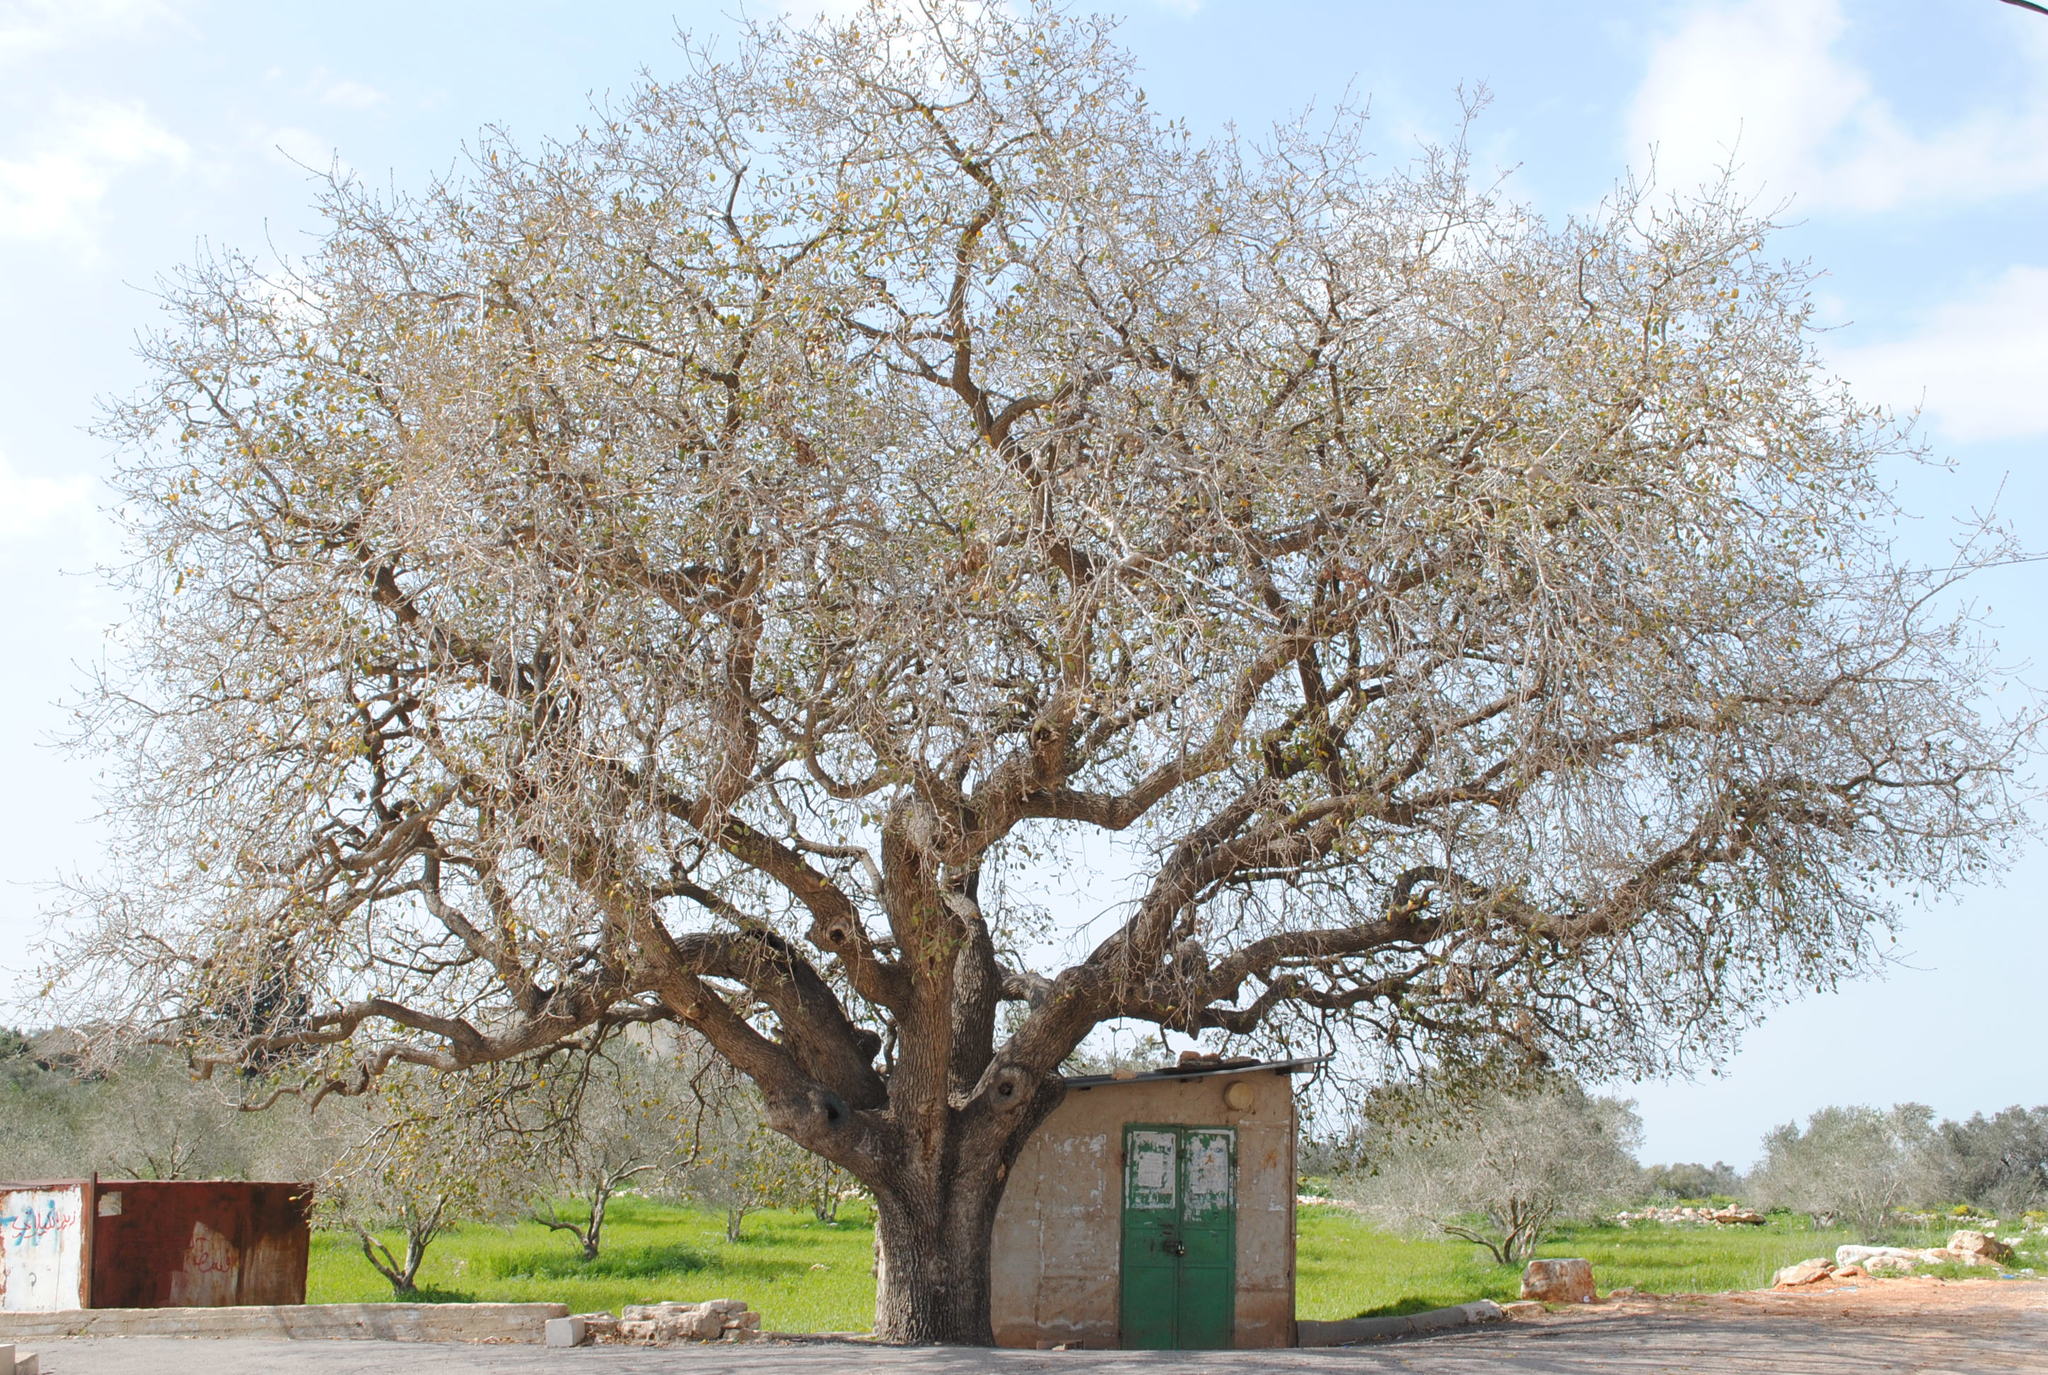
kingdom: Plantae
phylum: Tracheophyta
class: Magnoliopsida
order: Fagales
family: Fagaceae
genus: Quercus
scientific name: Quercus ithaburensis
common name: Tabor oak
